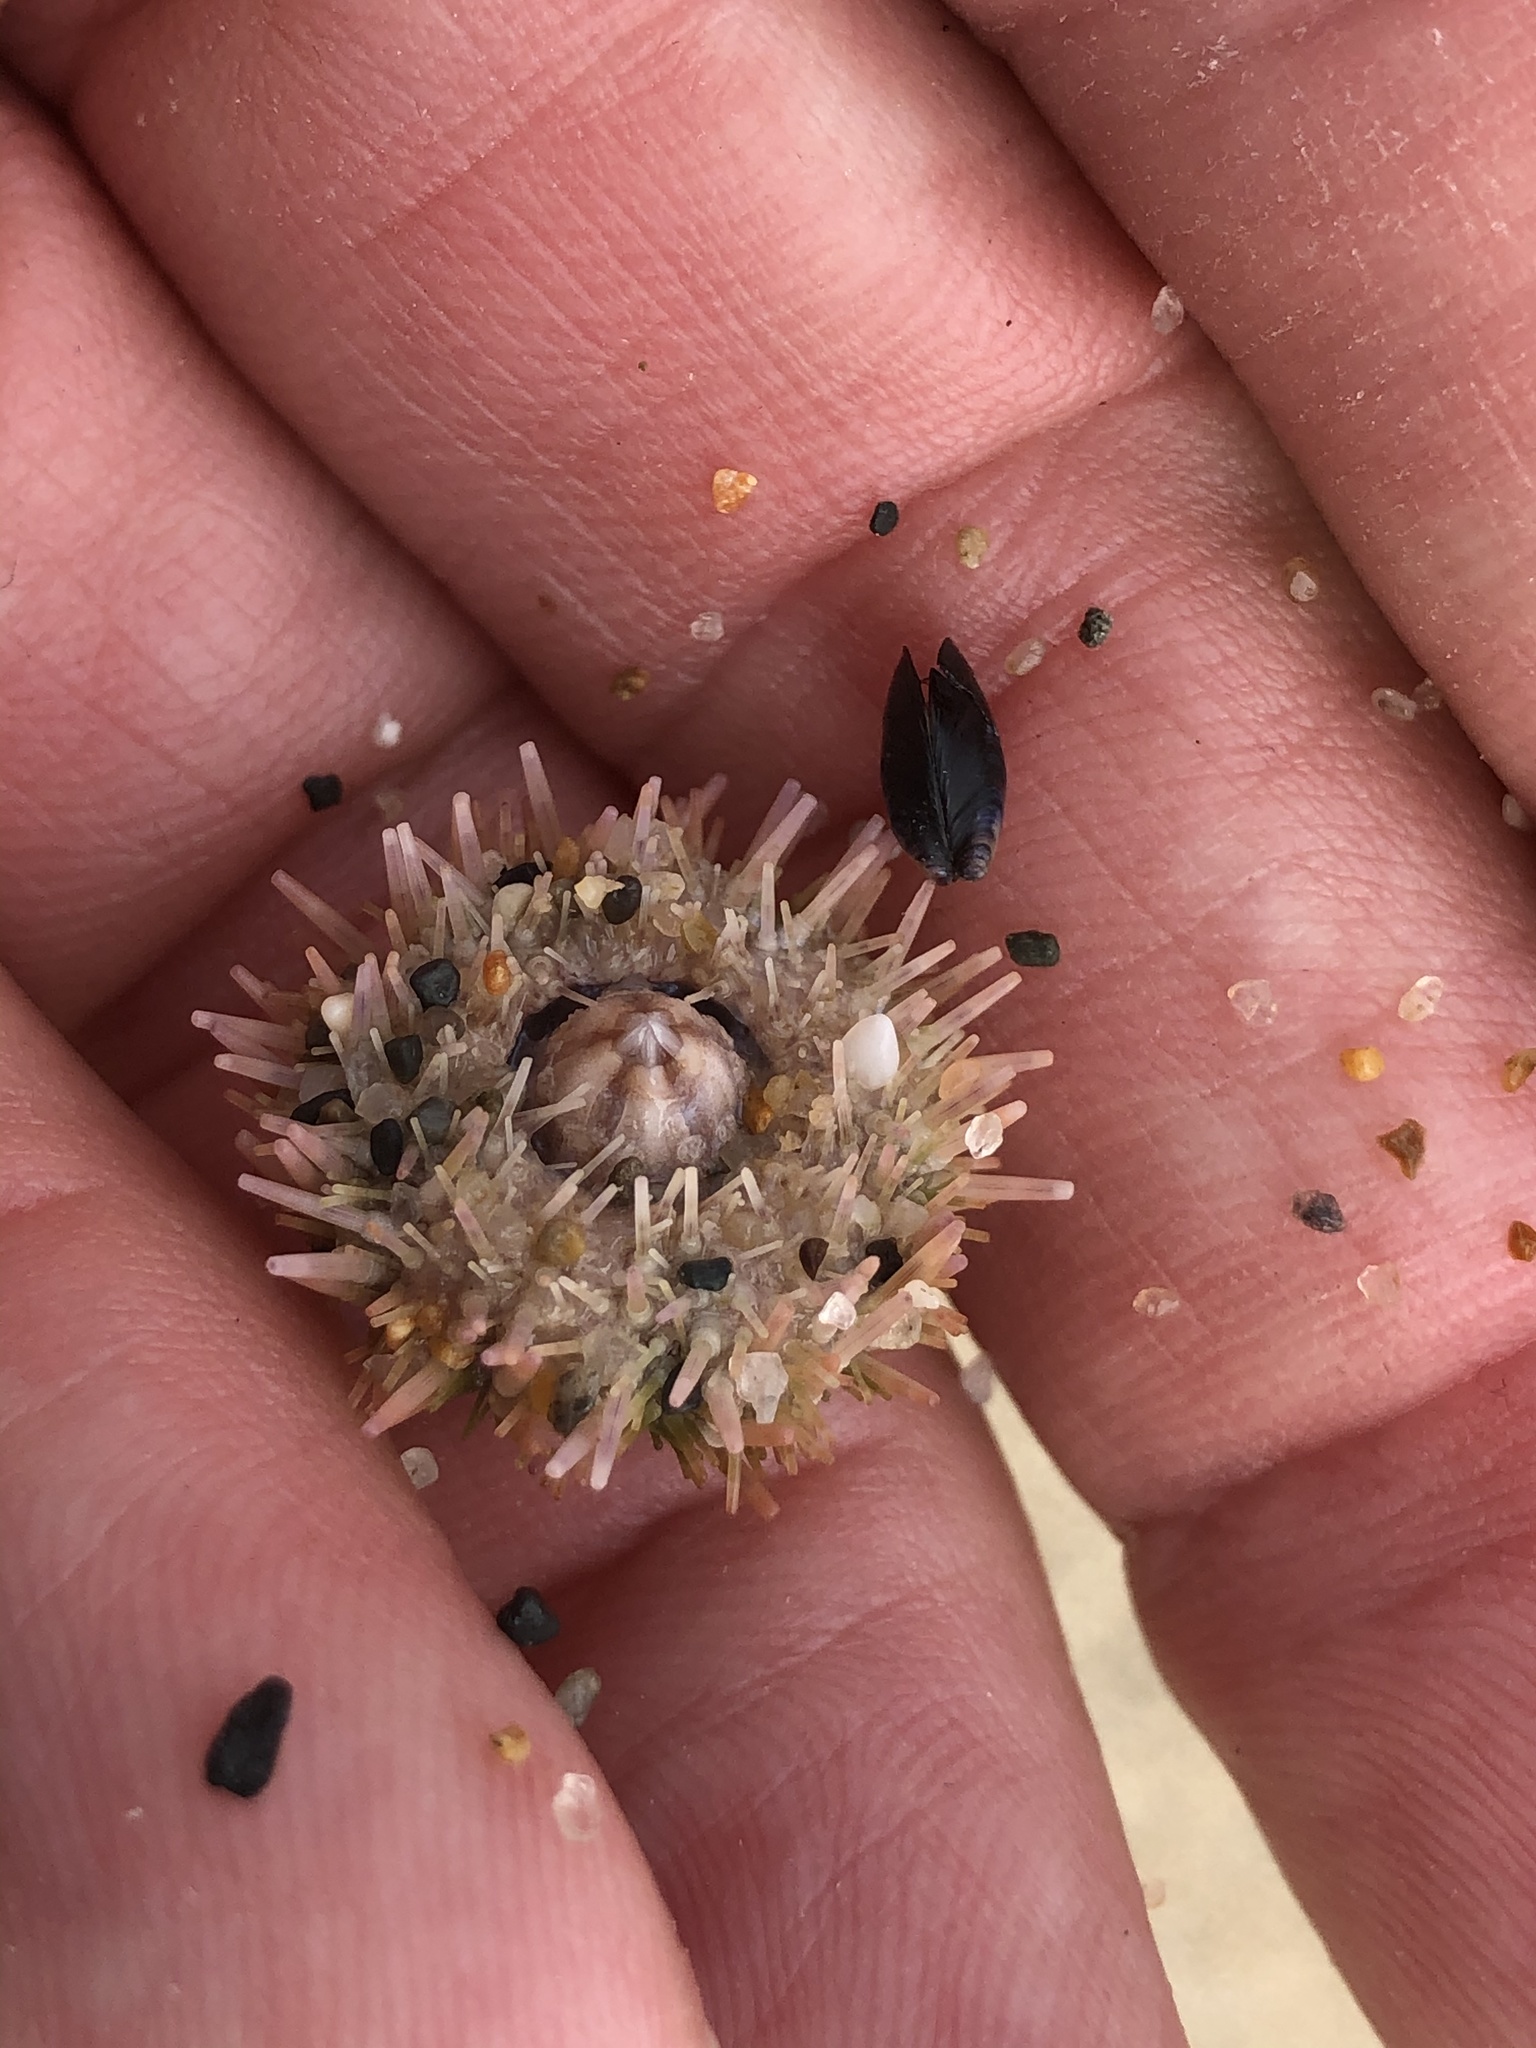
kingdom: Animalia
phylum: Echinodermata
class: Echinoidea
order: Camarodonta
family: Strongylocentrotidae
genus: Strongylocentrotus
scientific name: Strongylocentrotus purpuratus
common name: Purple sea urchin
